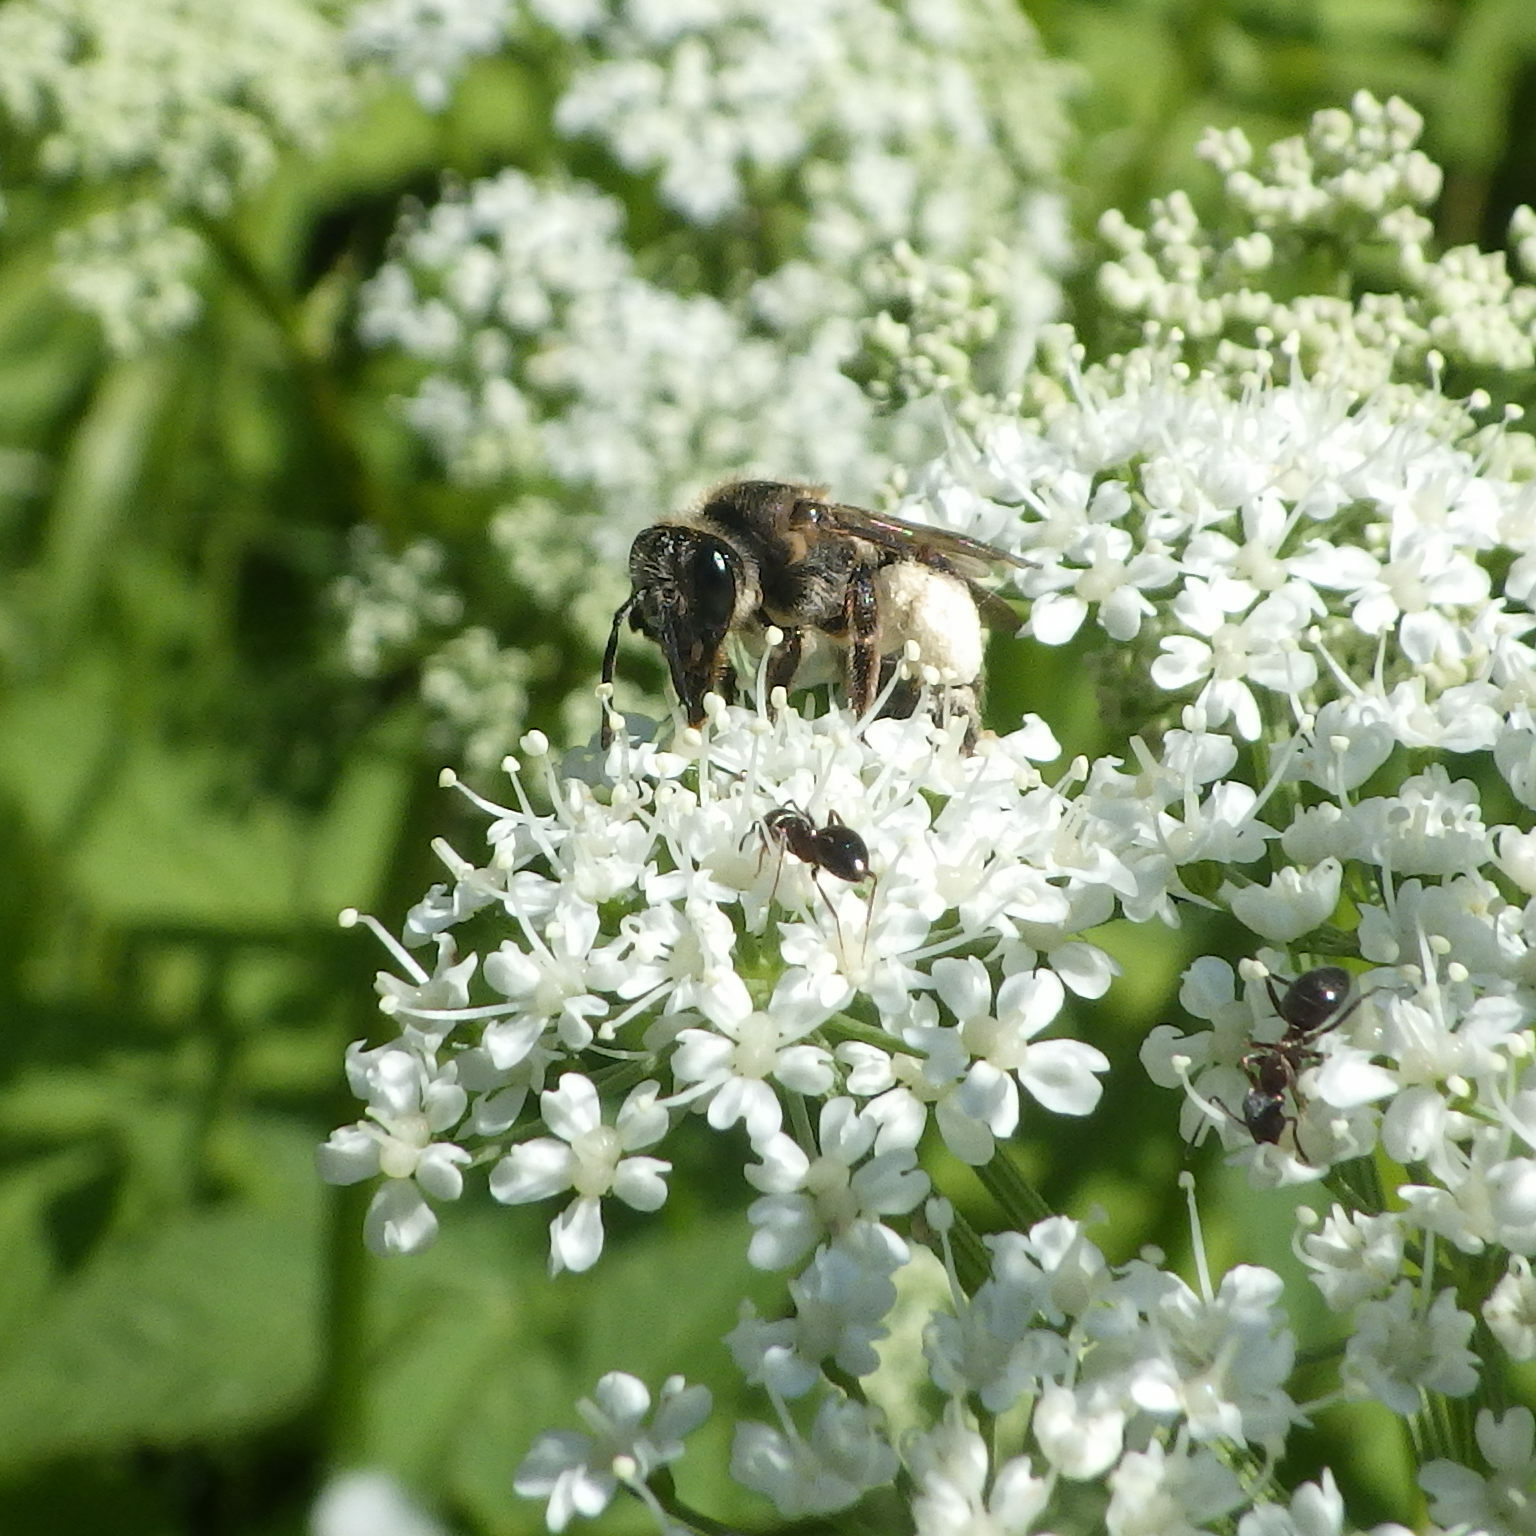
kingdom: Animalia
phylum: Arthropoda
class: Insecta
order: Hymenoptera
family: Andrenidae
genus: Andrena
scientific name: Andrena crataegi
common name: Hawthorn mining bee
